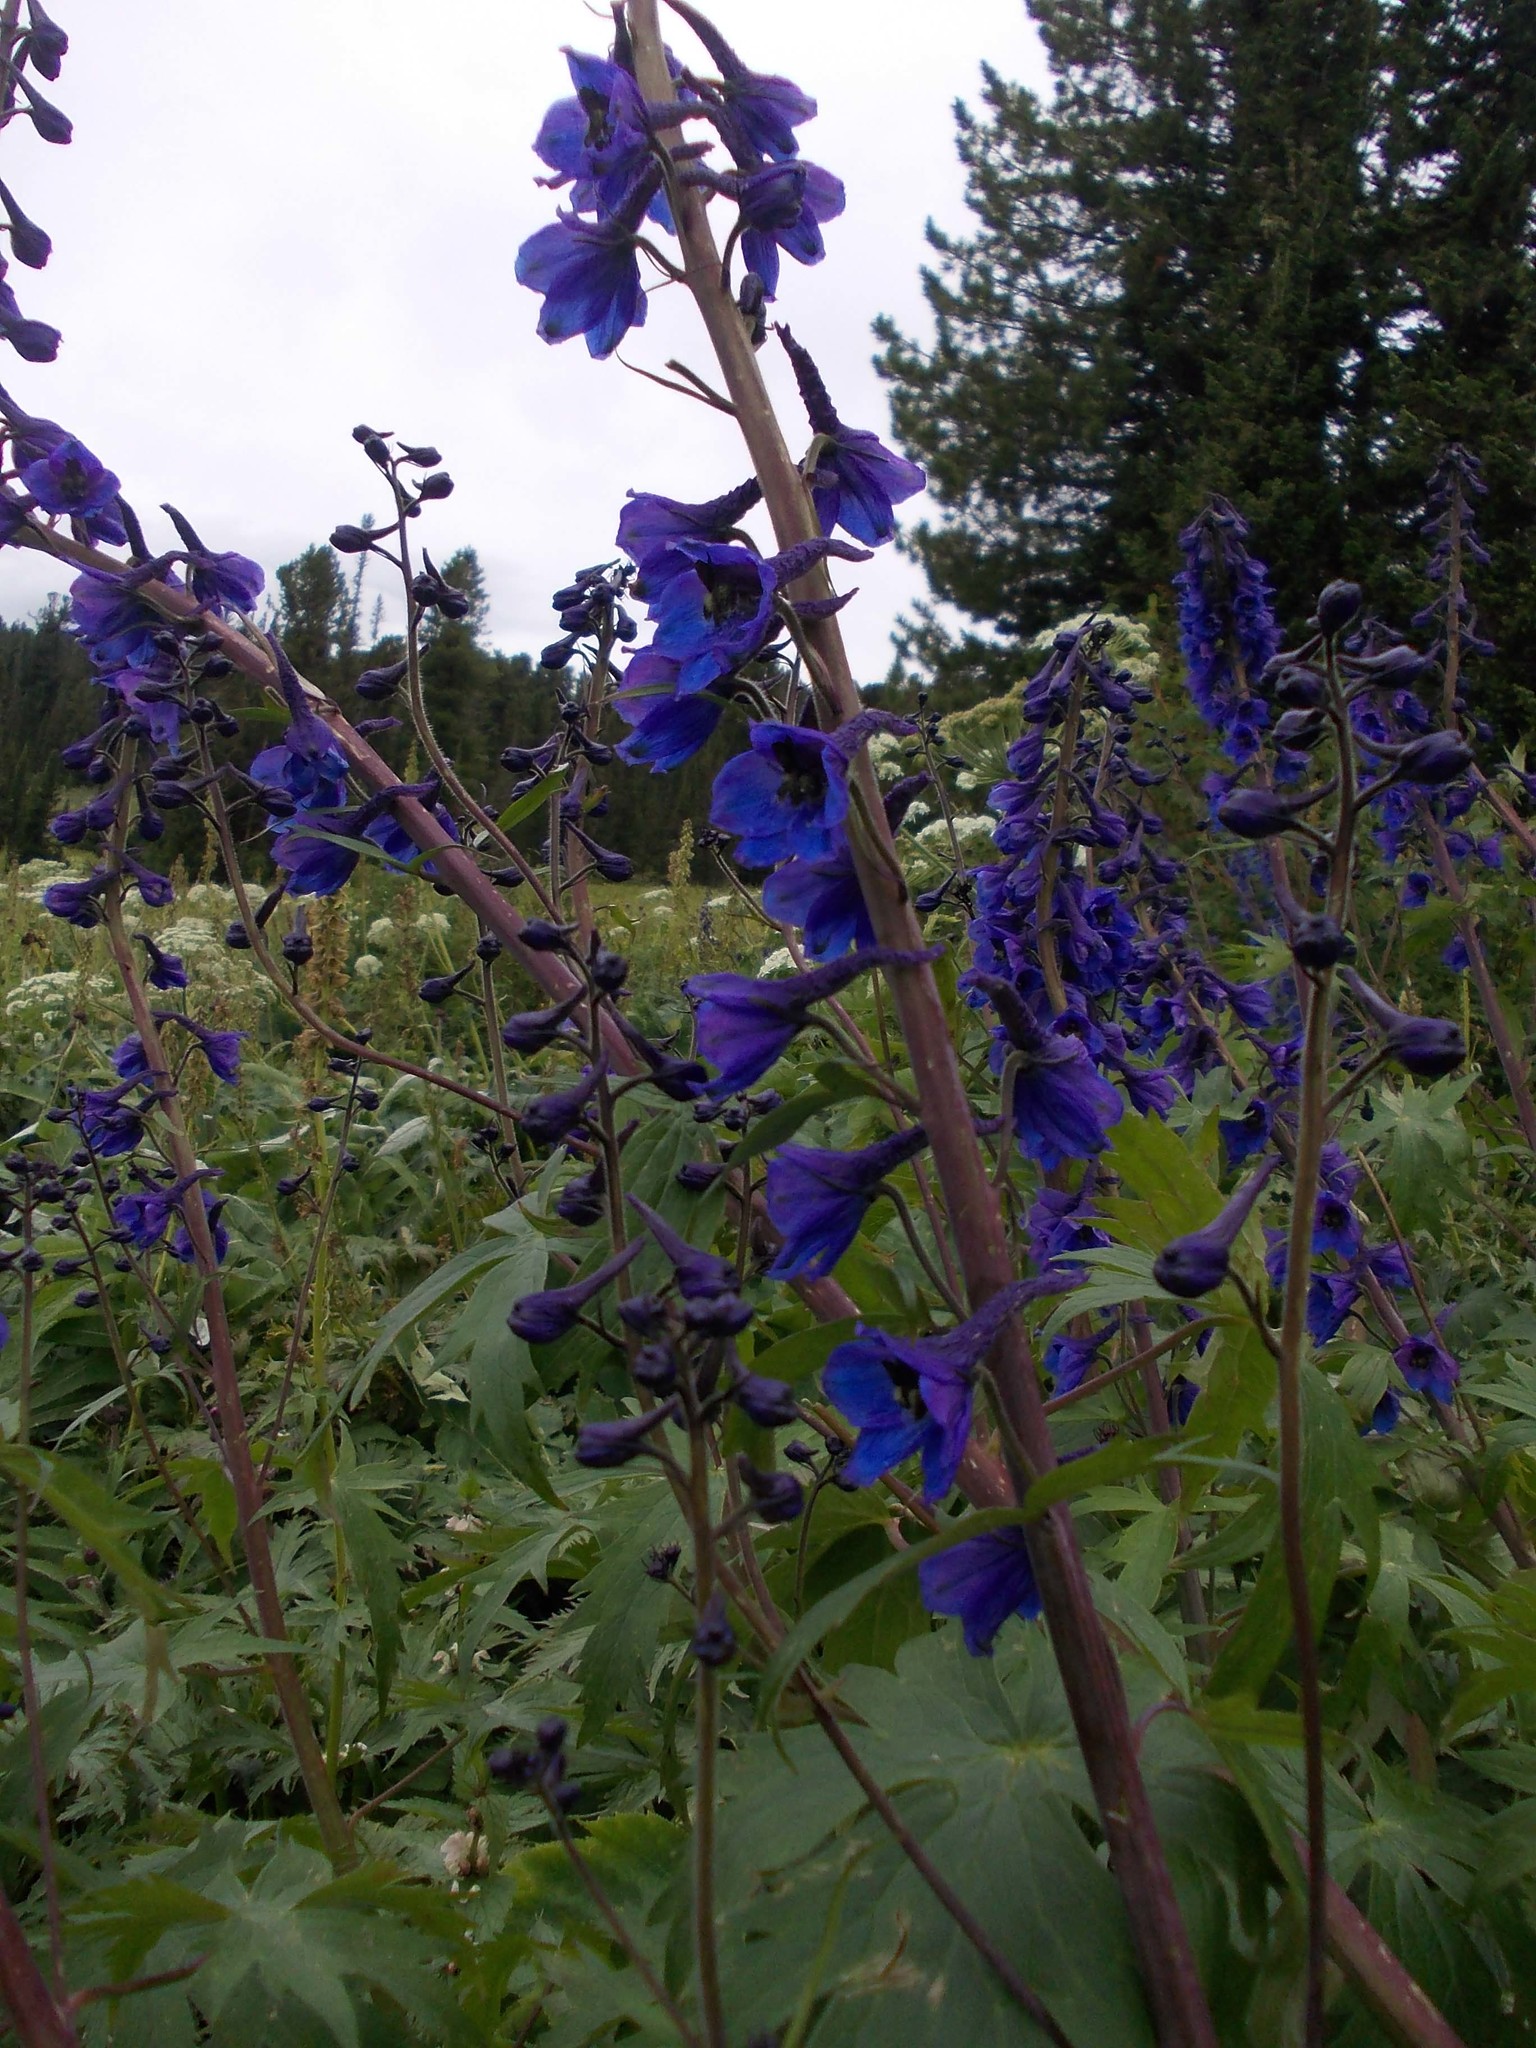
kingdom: Plantae
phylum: Tracheophyta
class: Magnoliopsida
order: Ranunculales
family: Ranunculaceae
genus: Delphinium
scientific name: Delphinium elatum
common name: Candle larkspur
